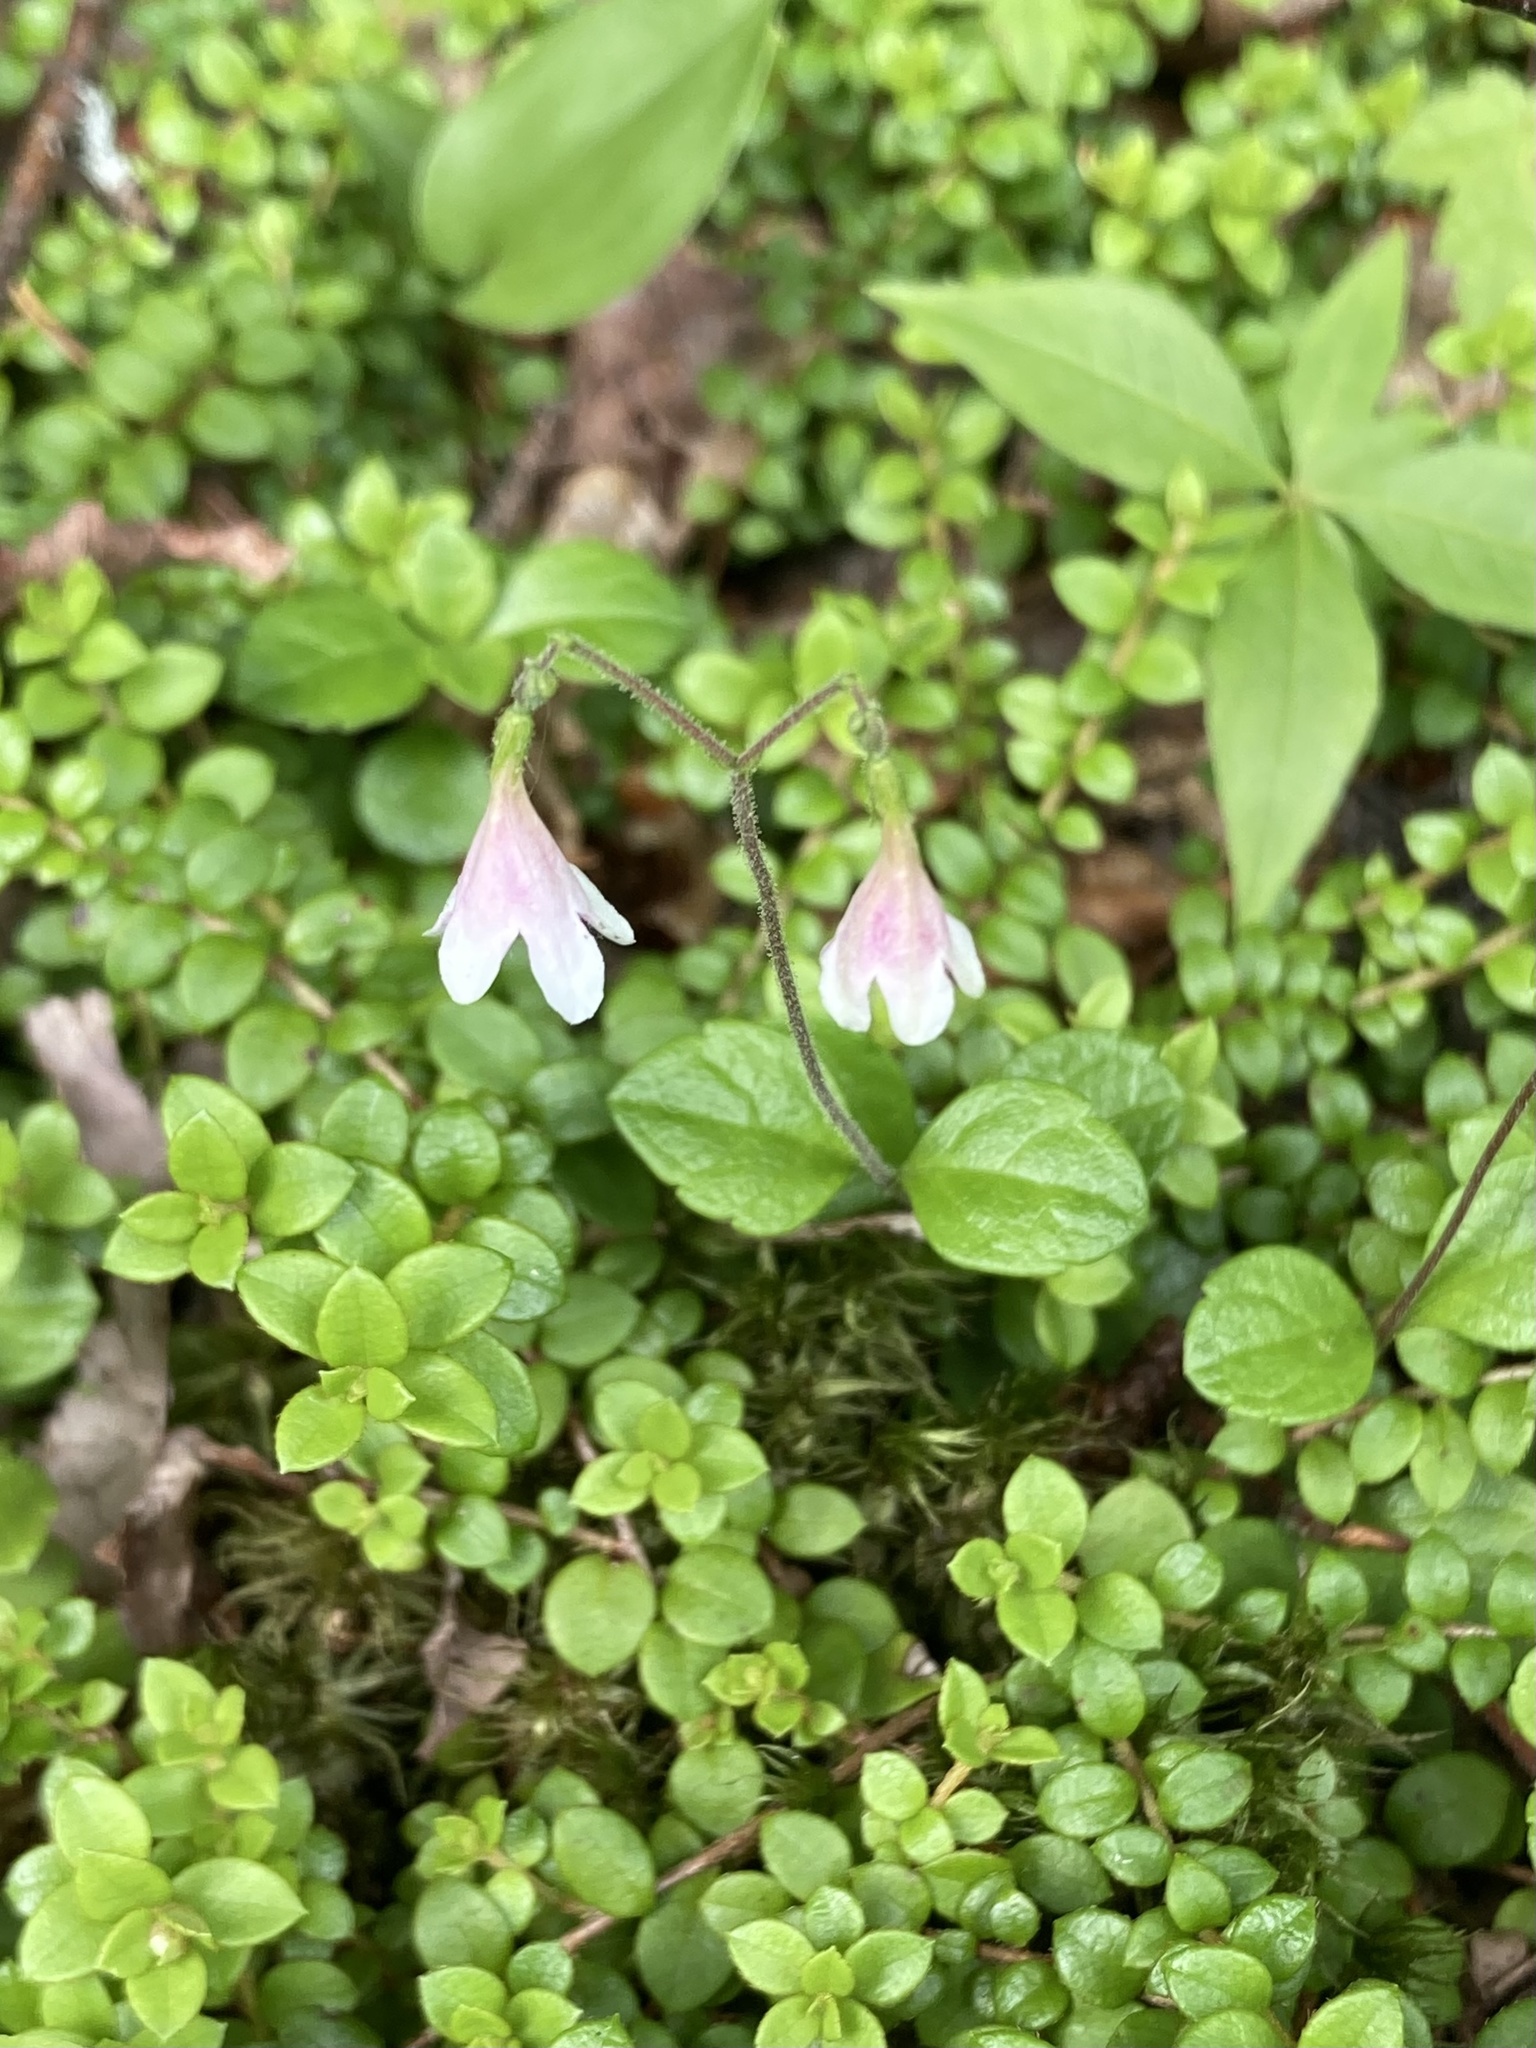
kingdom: Plantae
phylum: Tracheophyta
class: Magnoliopsida
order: Dipsacales
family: Caprifoliaceae
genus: Linnaea
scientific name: Linnaea borealis
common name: Twinflower
